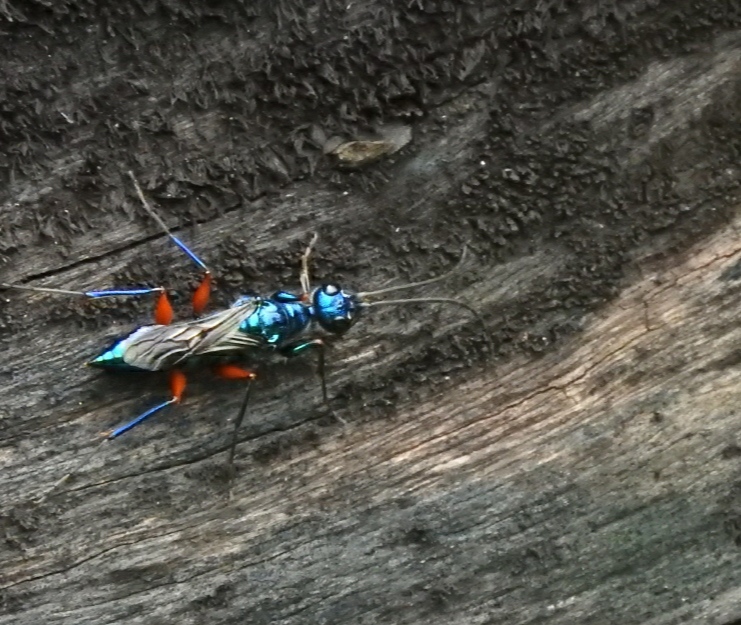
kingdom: Animalia
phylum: Arthropoda
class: Insecta
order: Hymenoptera
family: Ampulicidae
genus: Ampulex
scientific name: Ampulex compressa
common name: Emerald cockroach wasp
